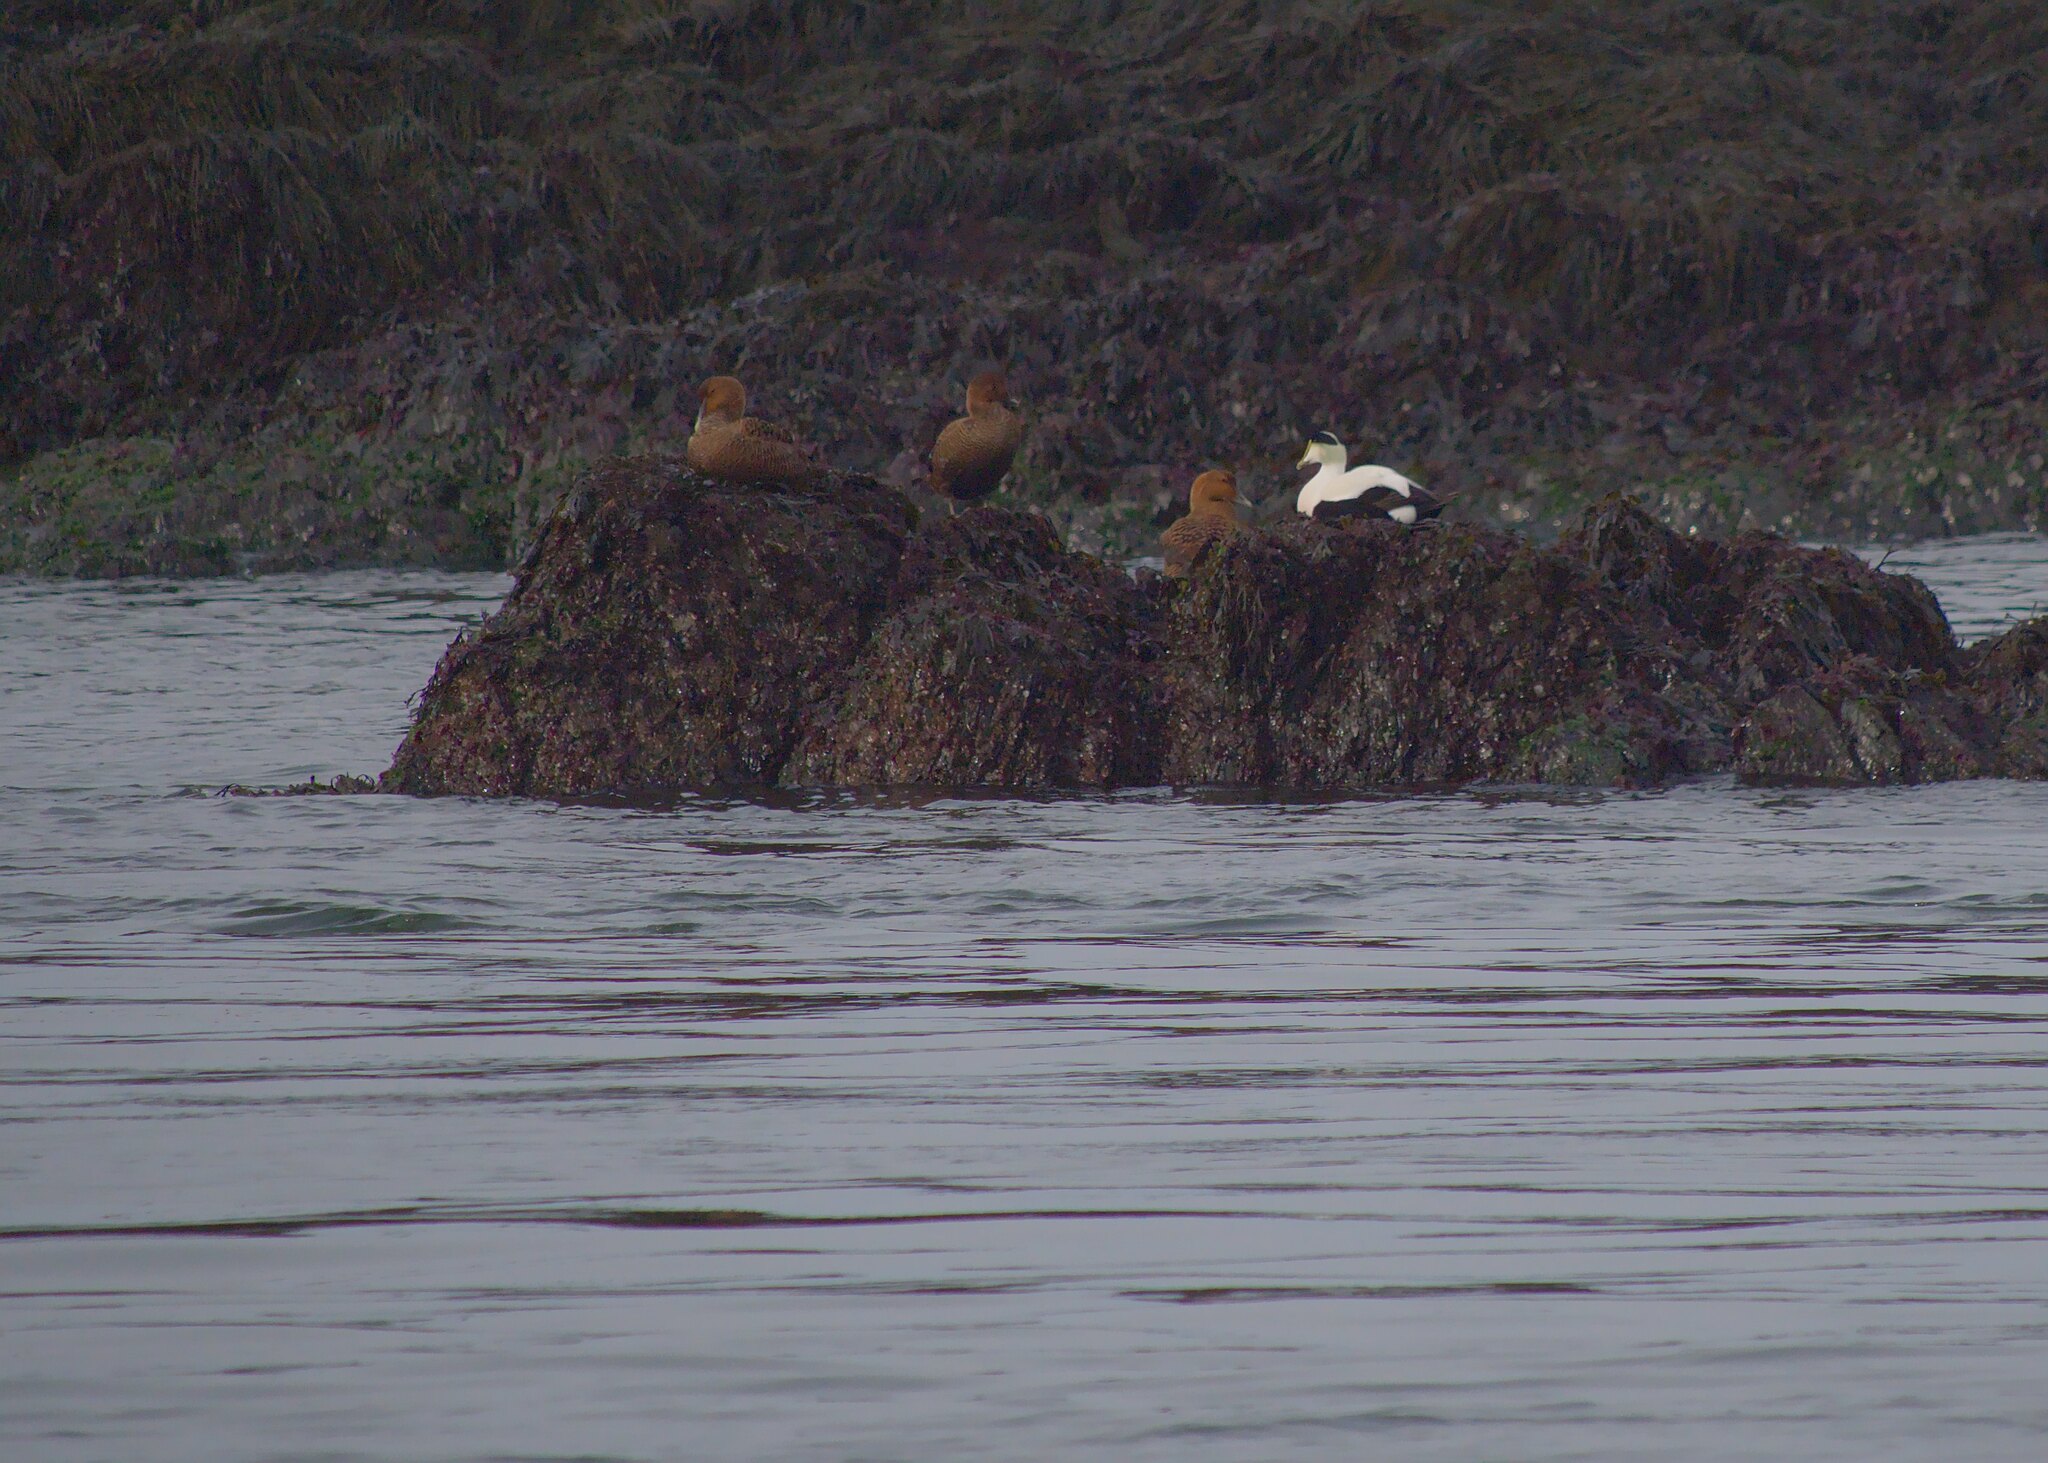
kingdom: Animalia
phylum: Chordata
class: Aves
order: Anseriformes
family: Anatidae
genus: Somateria
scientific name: Somateria mollissima
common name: Common eider
